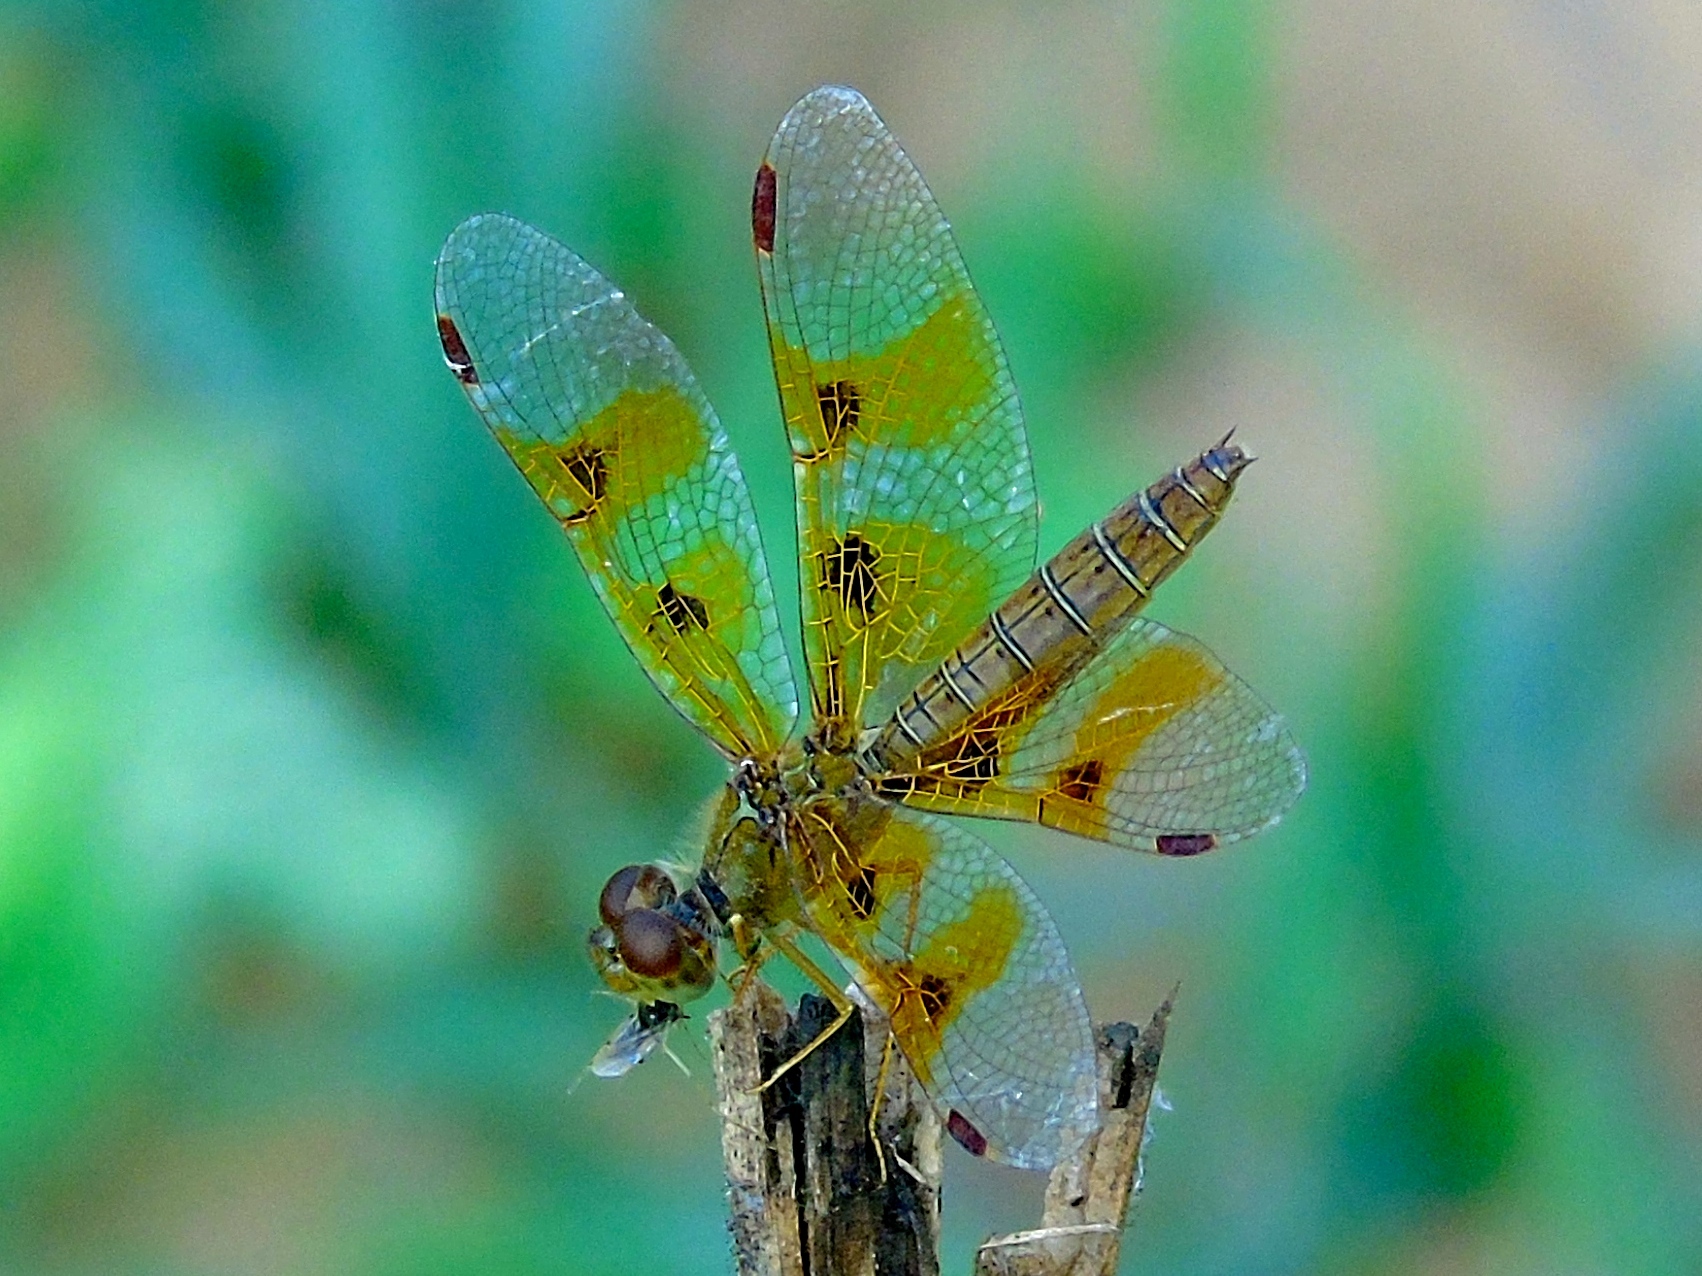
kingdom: Animalia
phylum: Arthropoda
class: Insecta
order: Odonata
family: Libellulidae
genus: Perithemis
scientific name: Perithemis intensa
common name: Mexican amberwing
